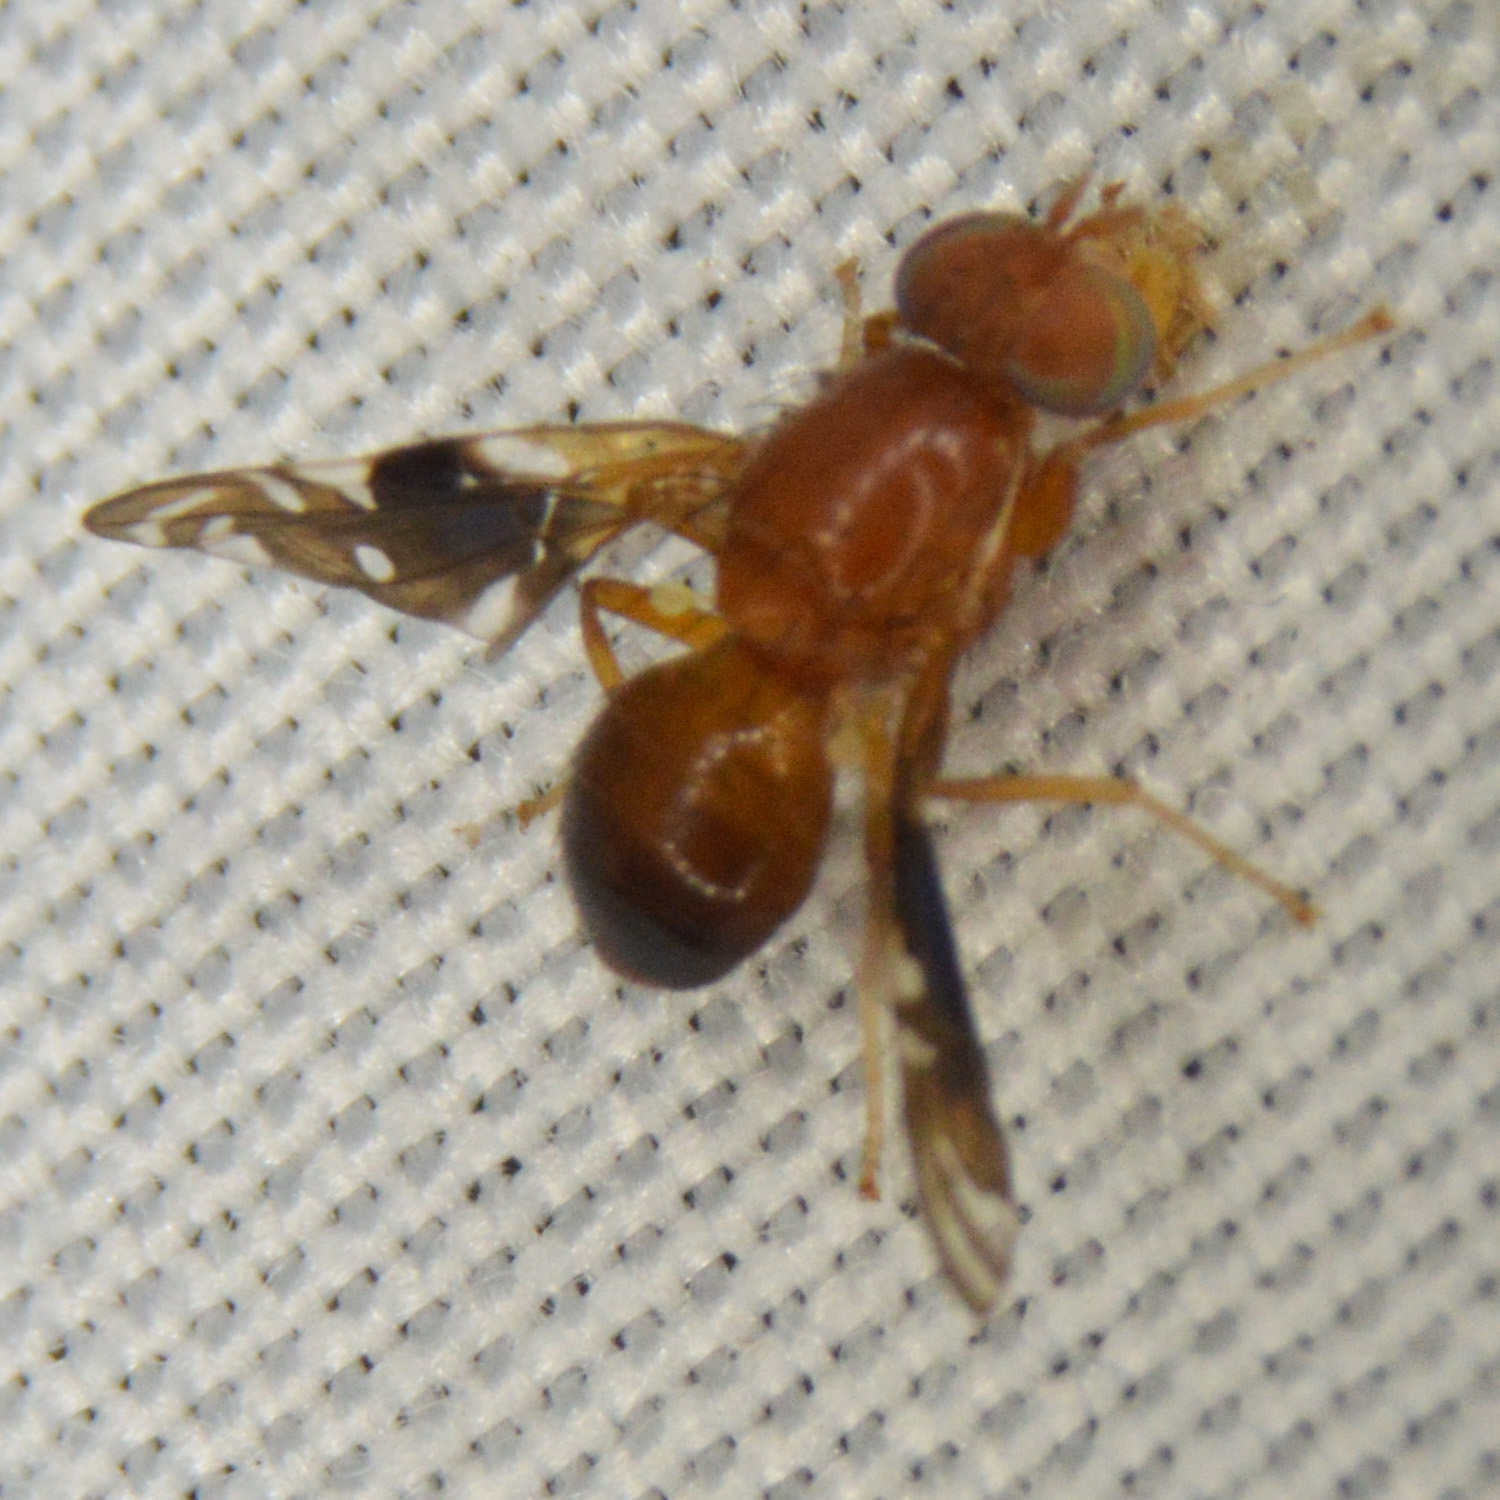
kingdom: Animalia
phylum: Arthropoda
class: Insecta
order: Diptera
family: Tephritidae
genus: Parastenopa
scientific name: Parastenopa limata
